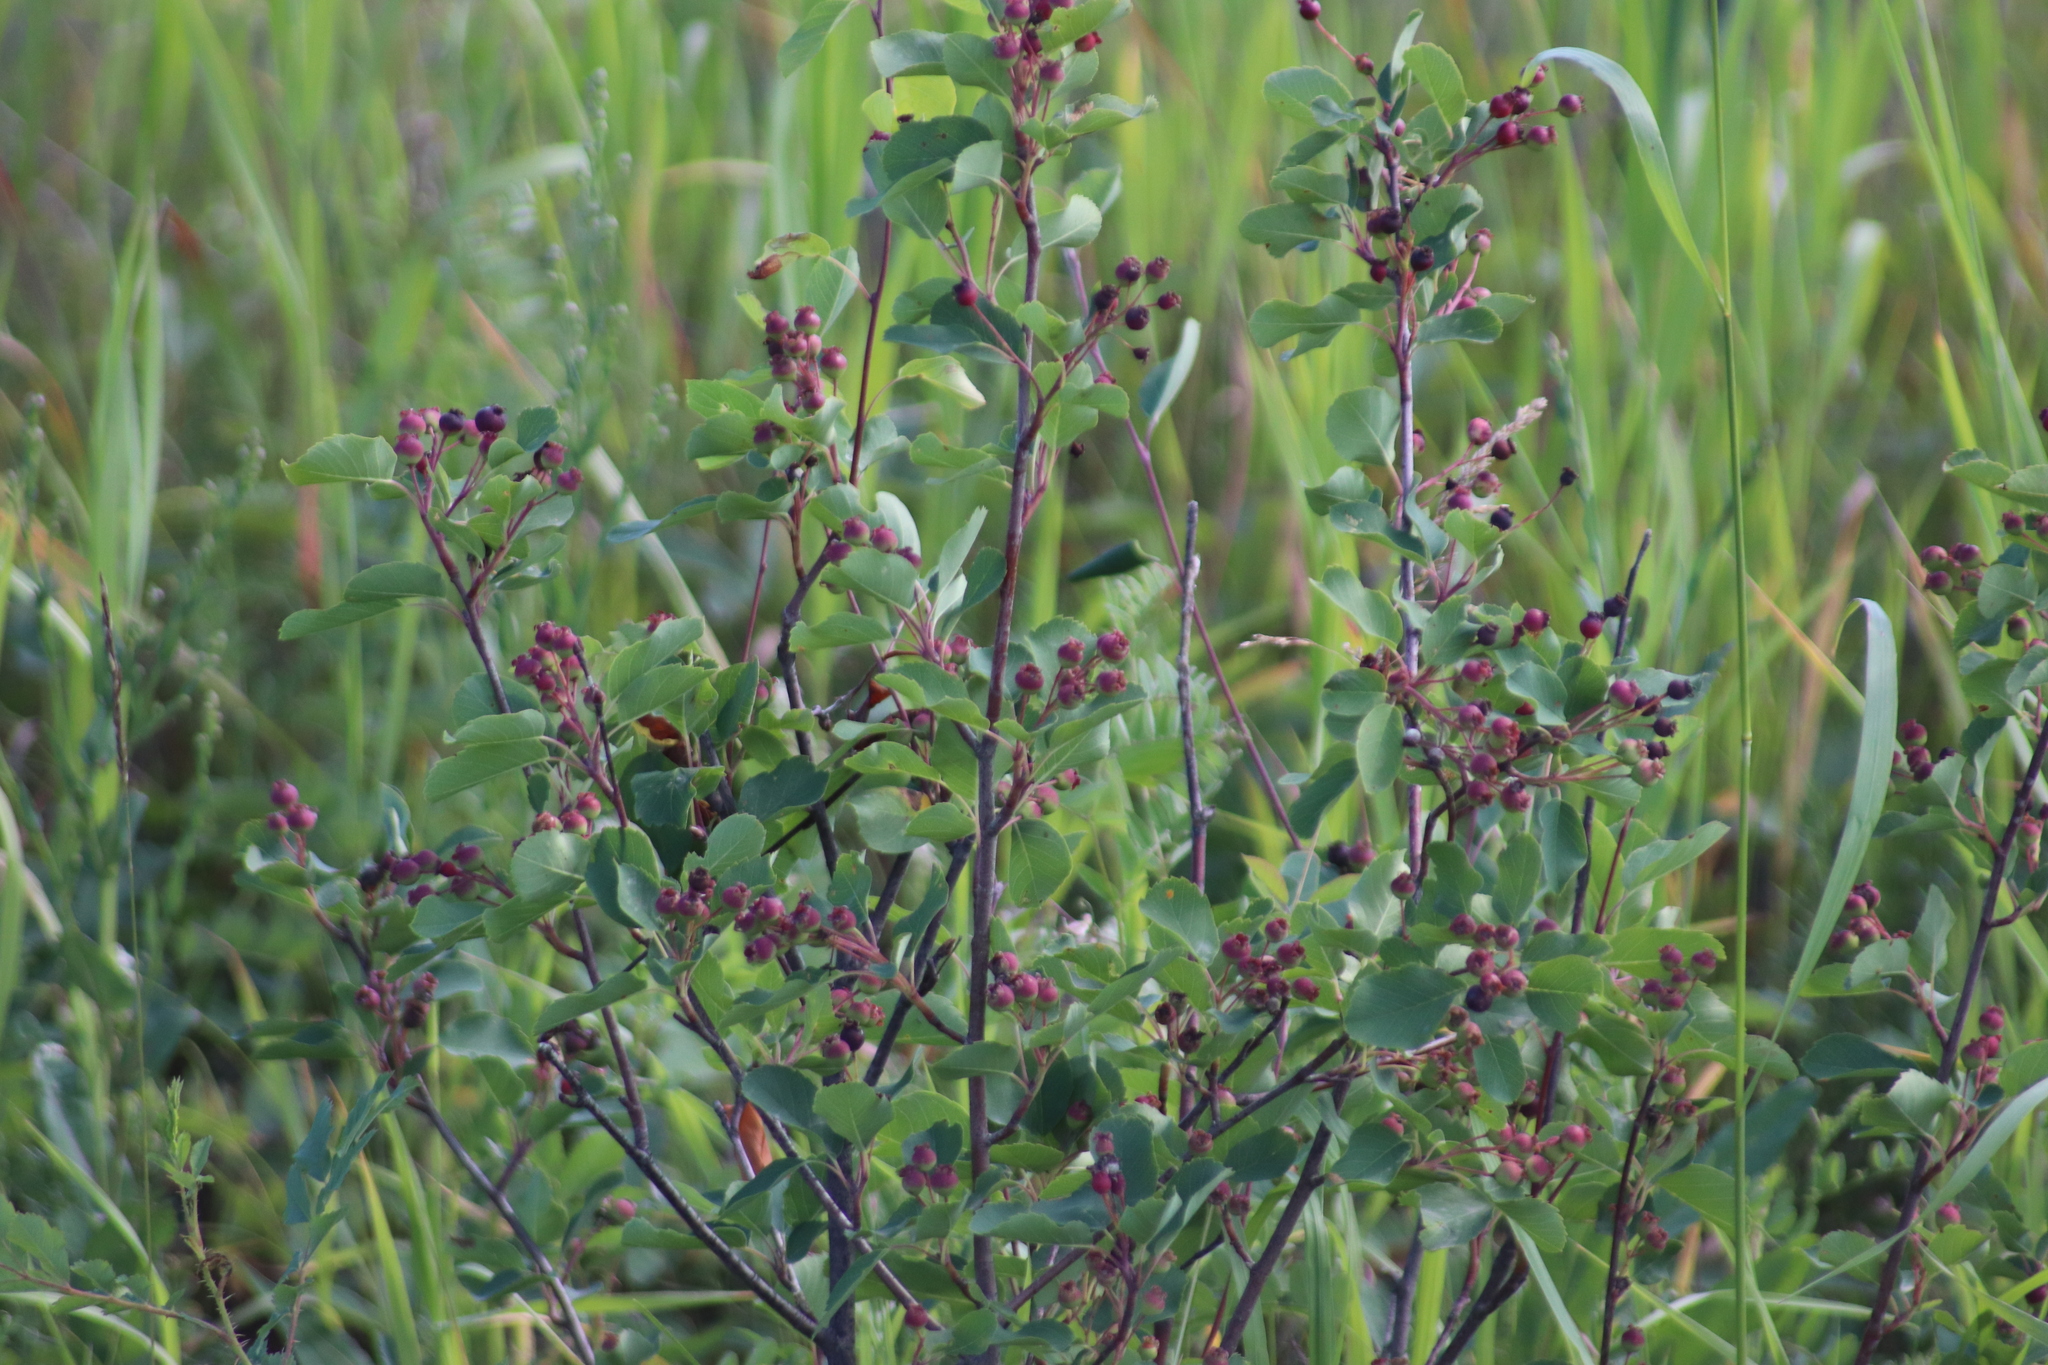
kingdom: Plantae
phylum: Tracheophyta
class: Magnoliopsida
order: Rosales
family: Rosaceae
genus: Amelanchier
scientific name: Amelanchier alnifolia
